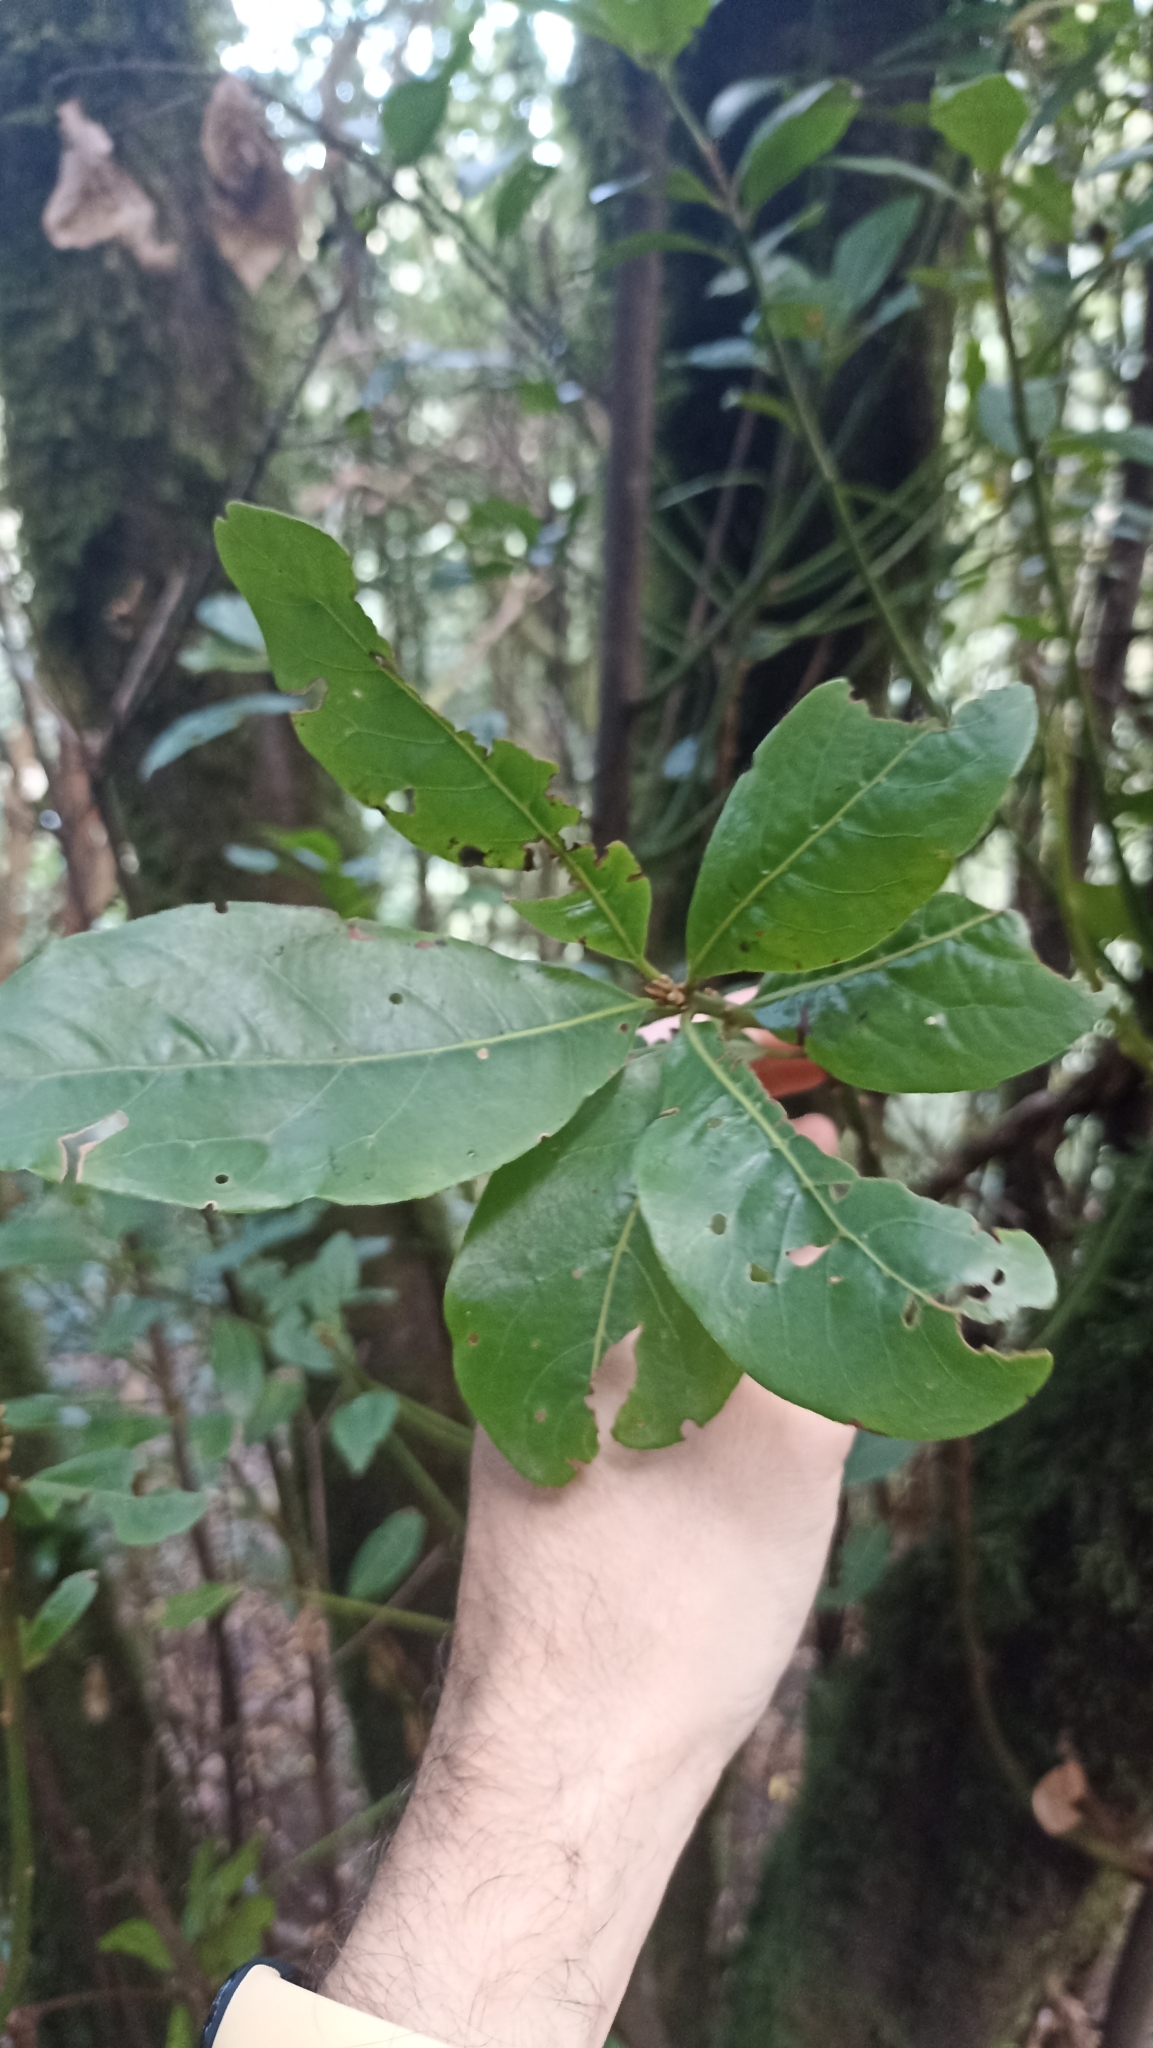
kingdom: Plantae
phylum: Tracheophyta
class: Magnoliopsida
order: Laurales
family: Lauraceae
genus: Laurus
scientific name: Laurus novocanariensis
